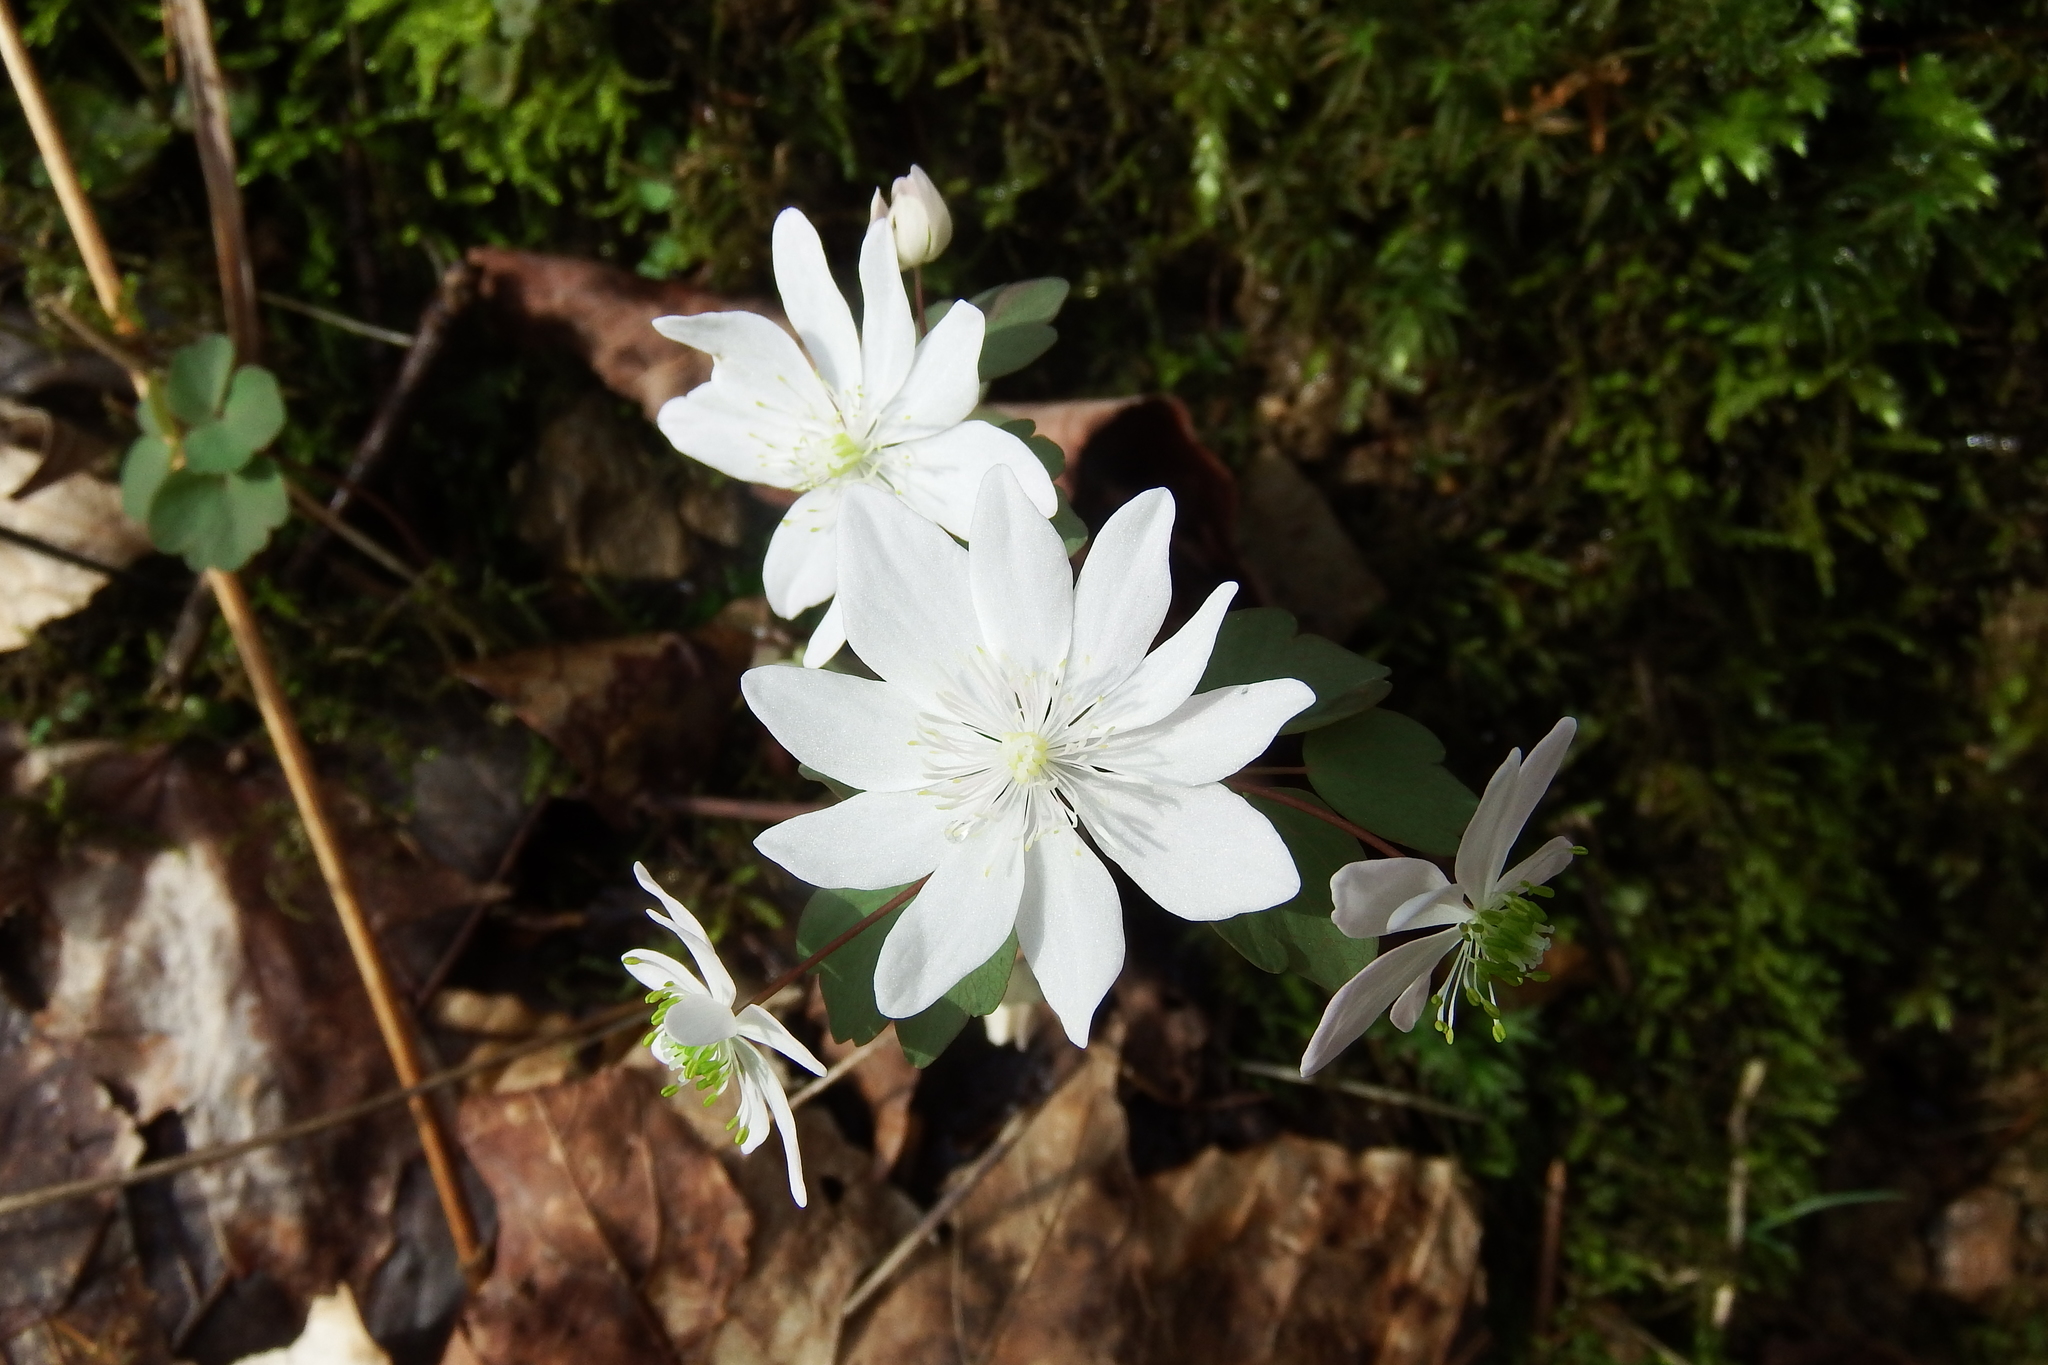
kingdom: Plantae
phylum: Tracheophyta
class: Magnoliopsida
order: Ranunculales
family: Ranunculaceae
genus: Thalictrum
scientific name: Thalictrum thalictroides
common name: Rue-anemone
